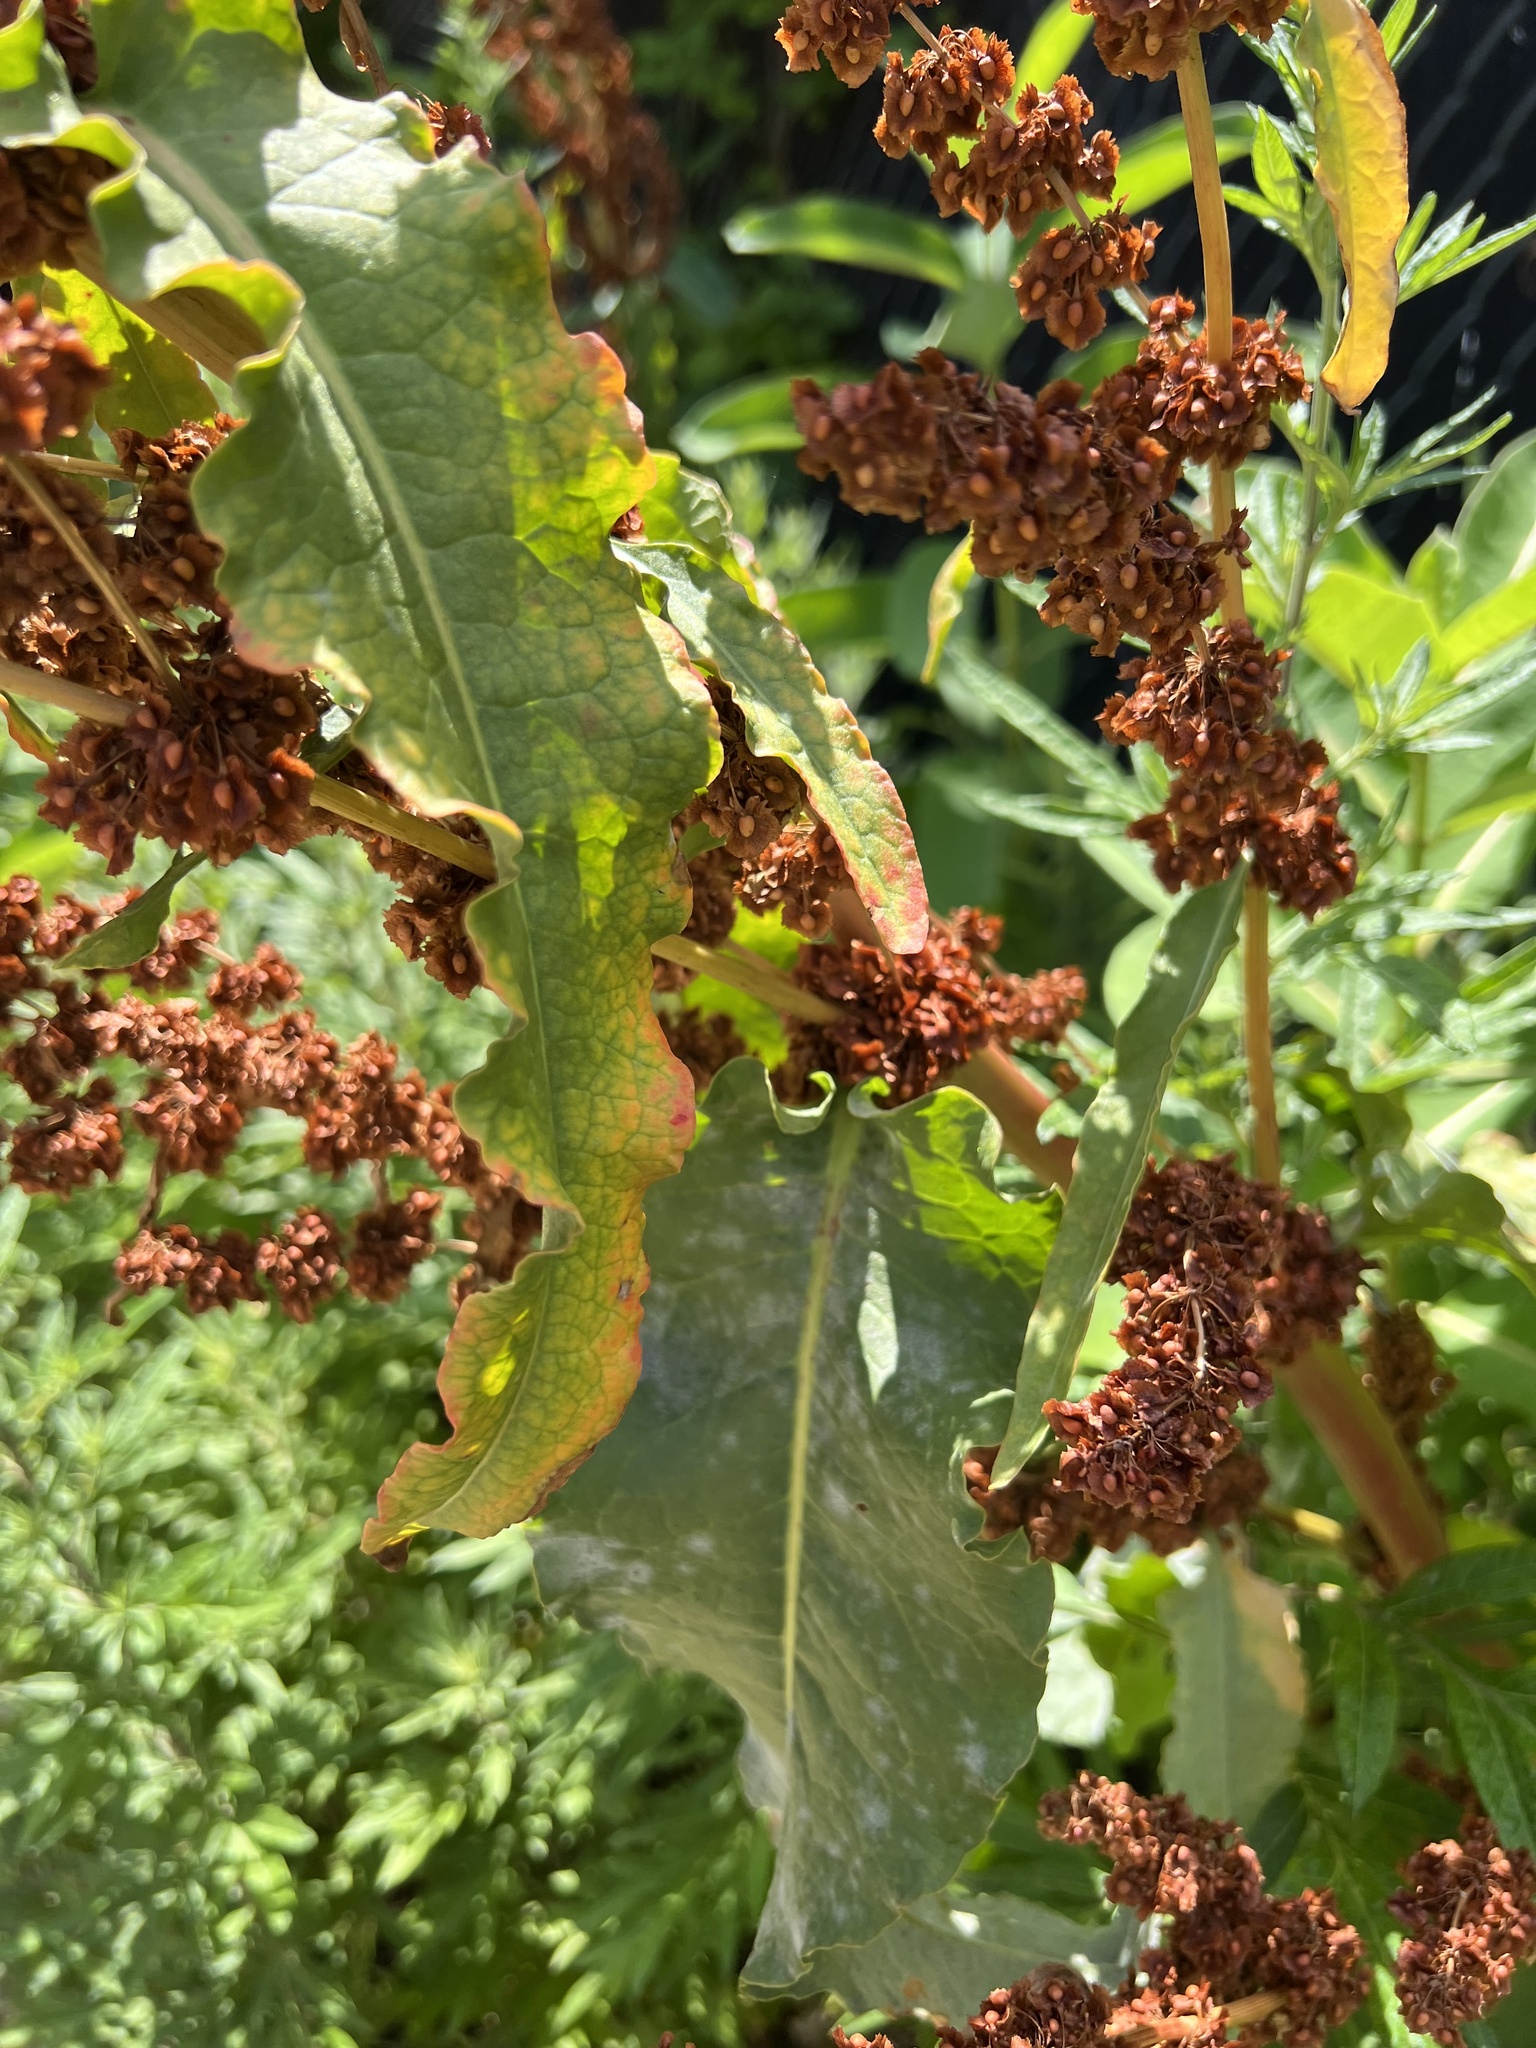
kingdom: Plantae
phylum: Tracheophyta
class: Magnoliopsida
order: Caryophyllales
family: Polygonaceae
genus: Rumex
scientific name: Rumex crispus
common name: Curled dock
